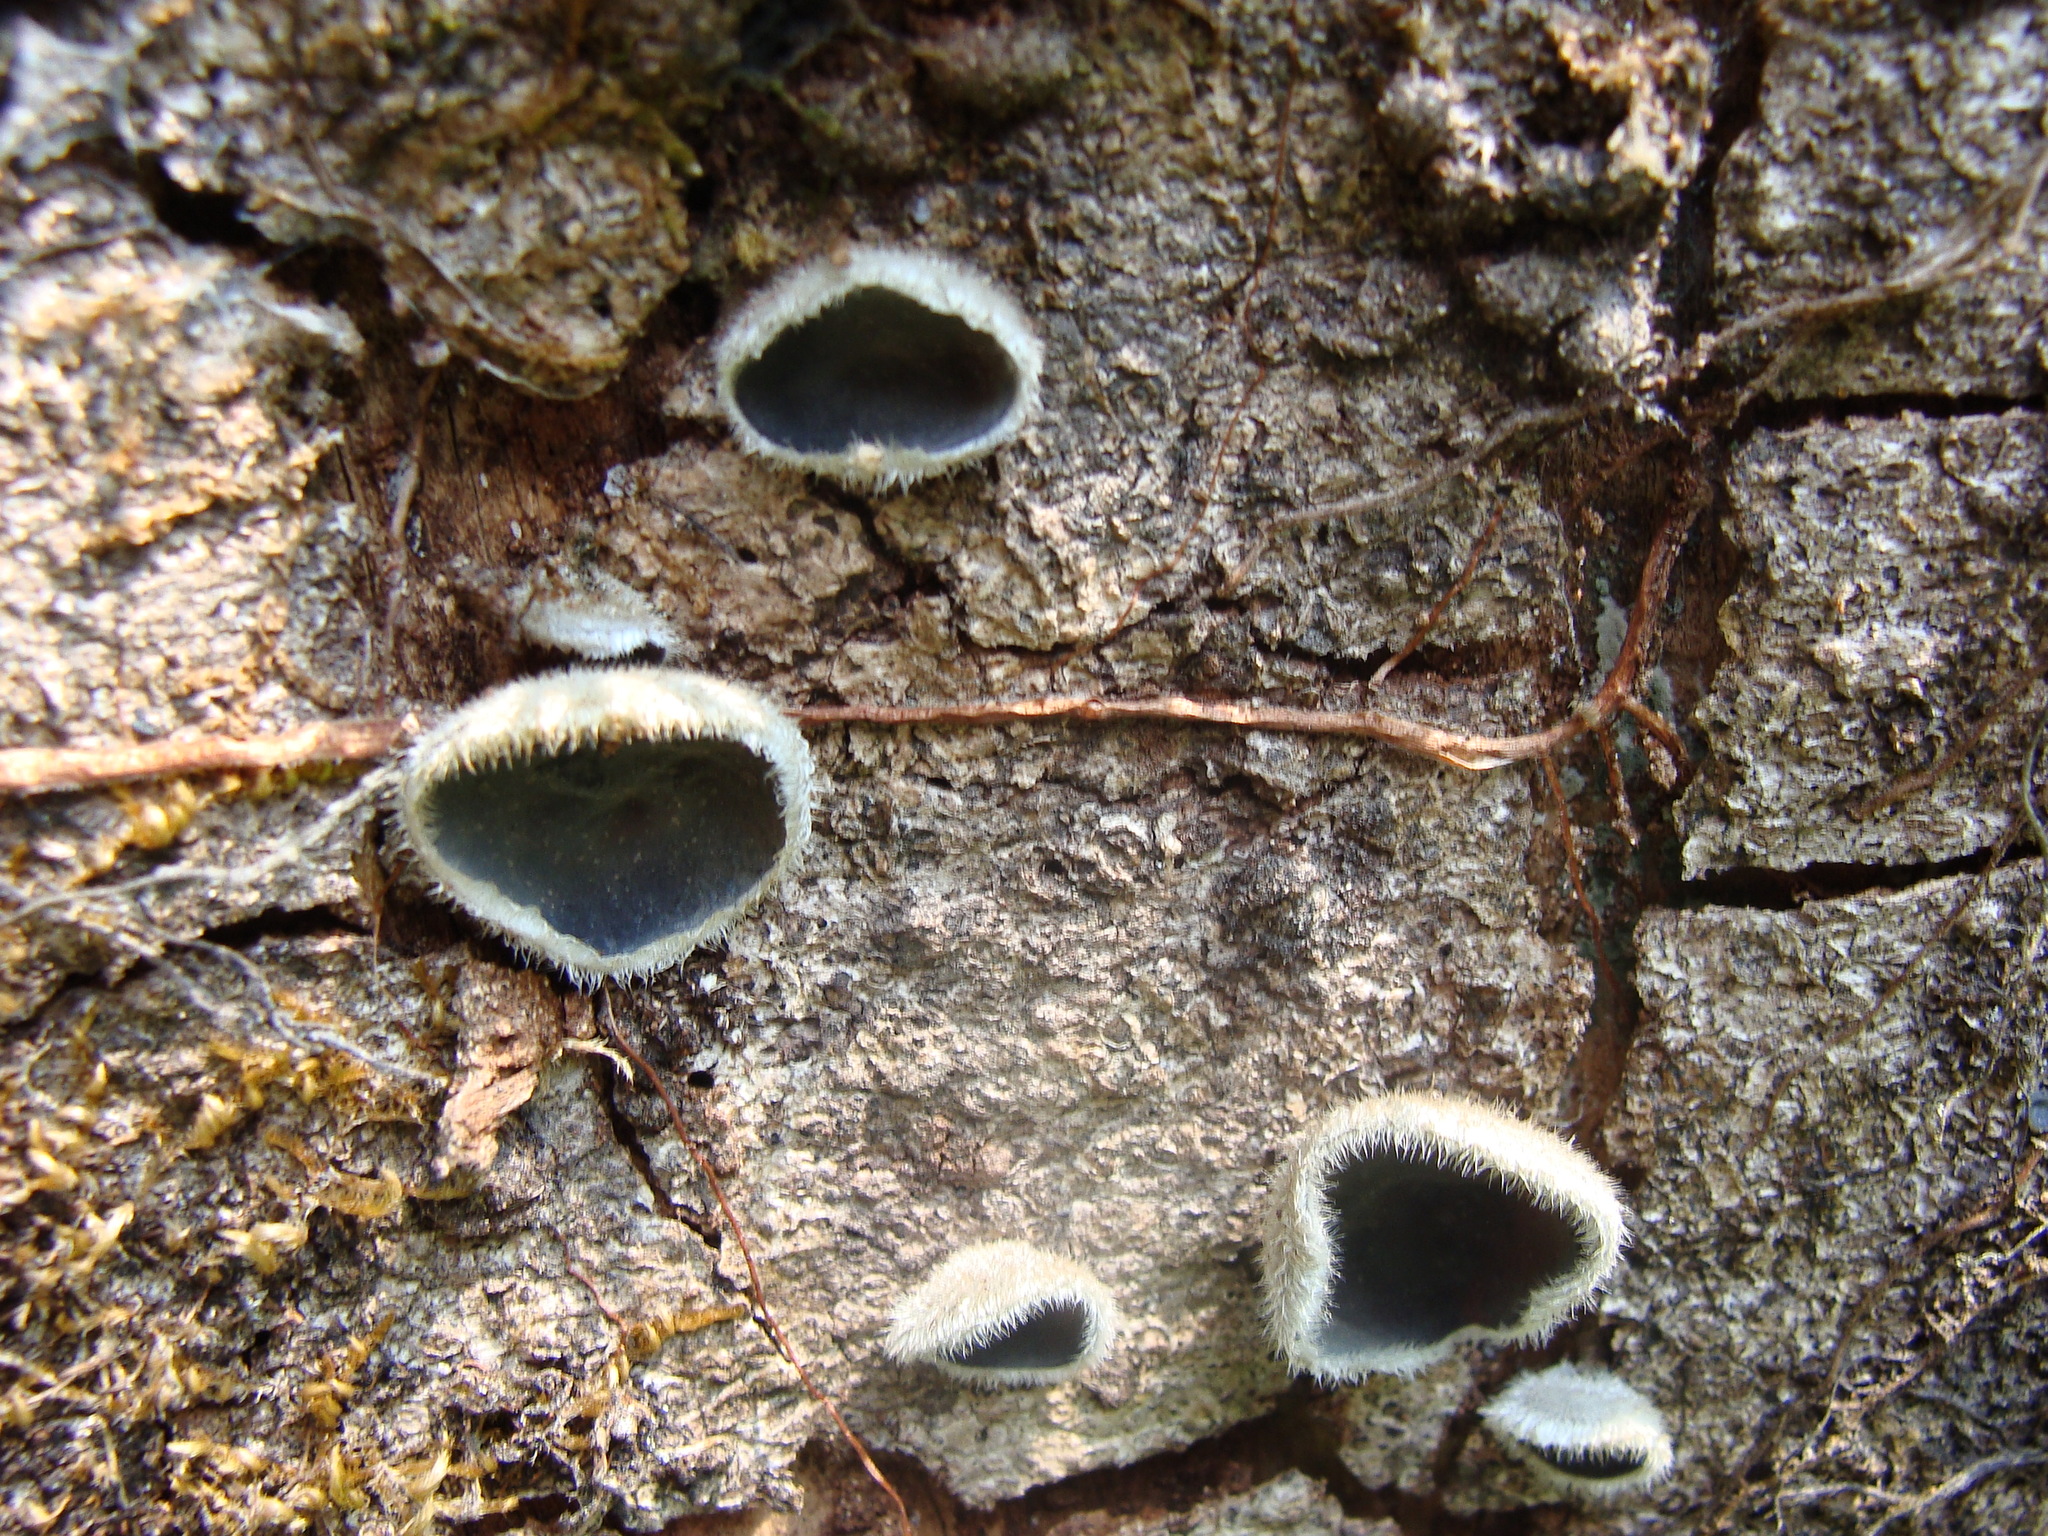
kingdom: Fungi
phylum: Basidiomycota
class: Agaricomycetes
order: Auriculariales
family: Auriculariaceae
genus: Auricularia
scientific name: Auricularia nigricans
